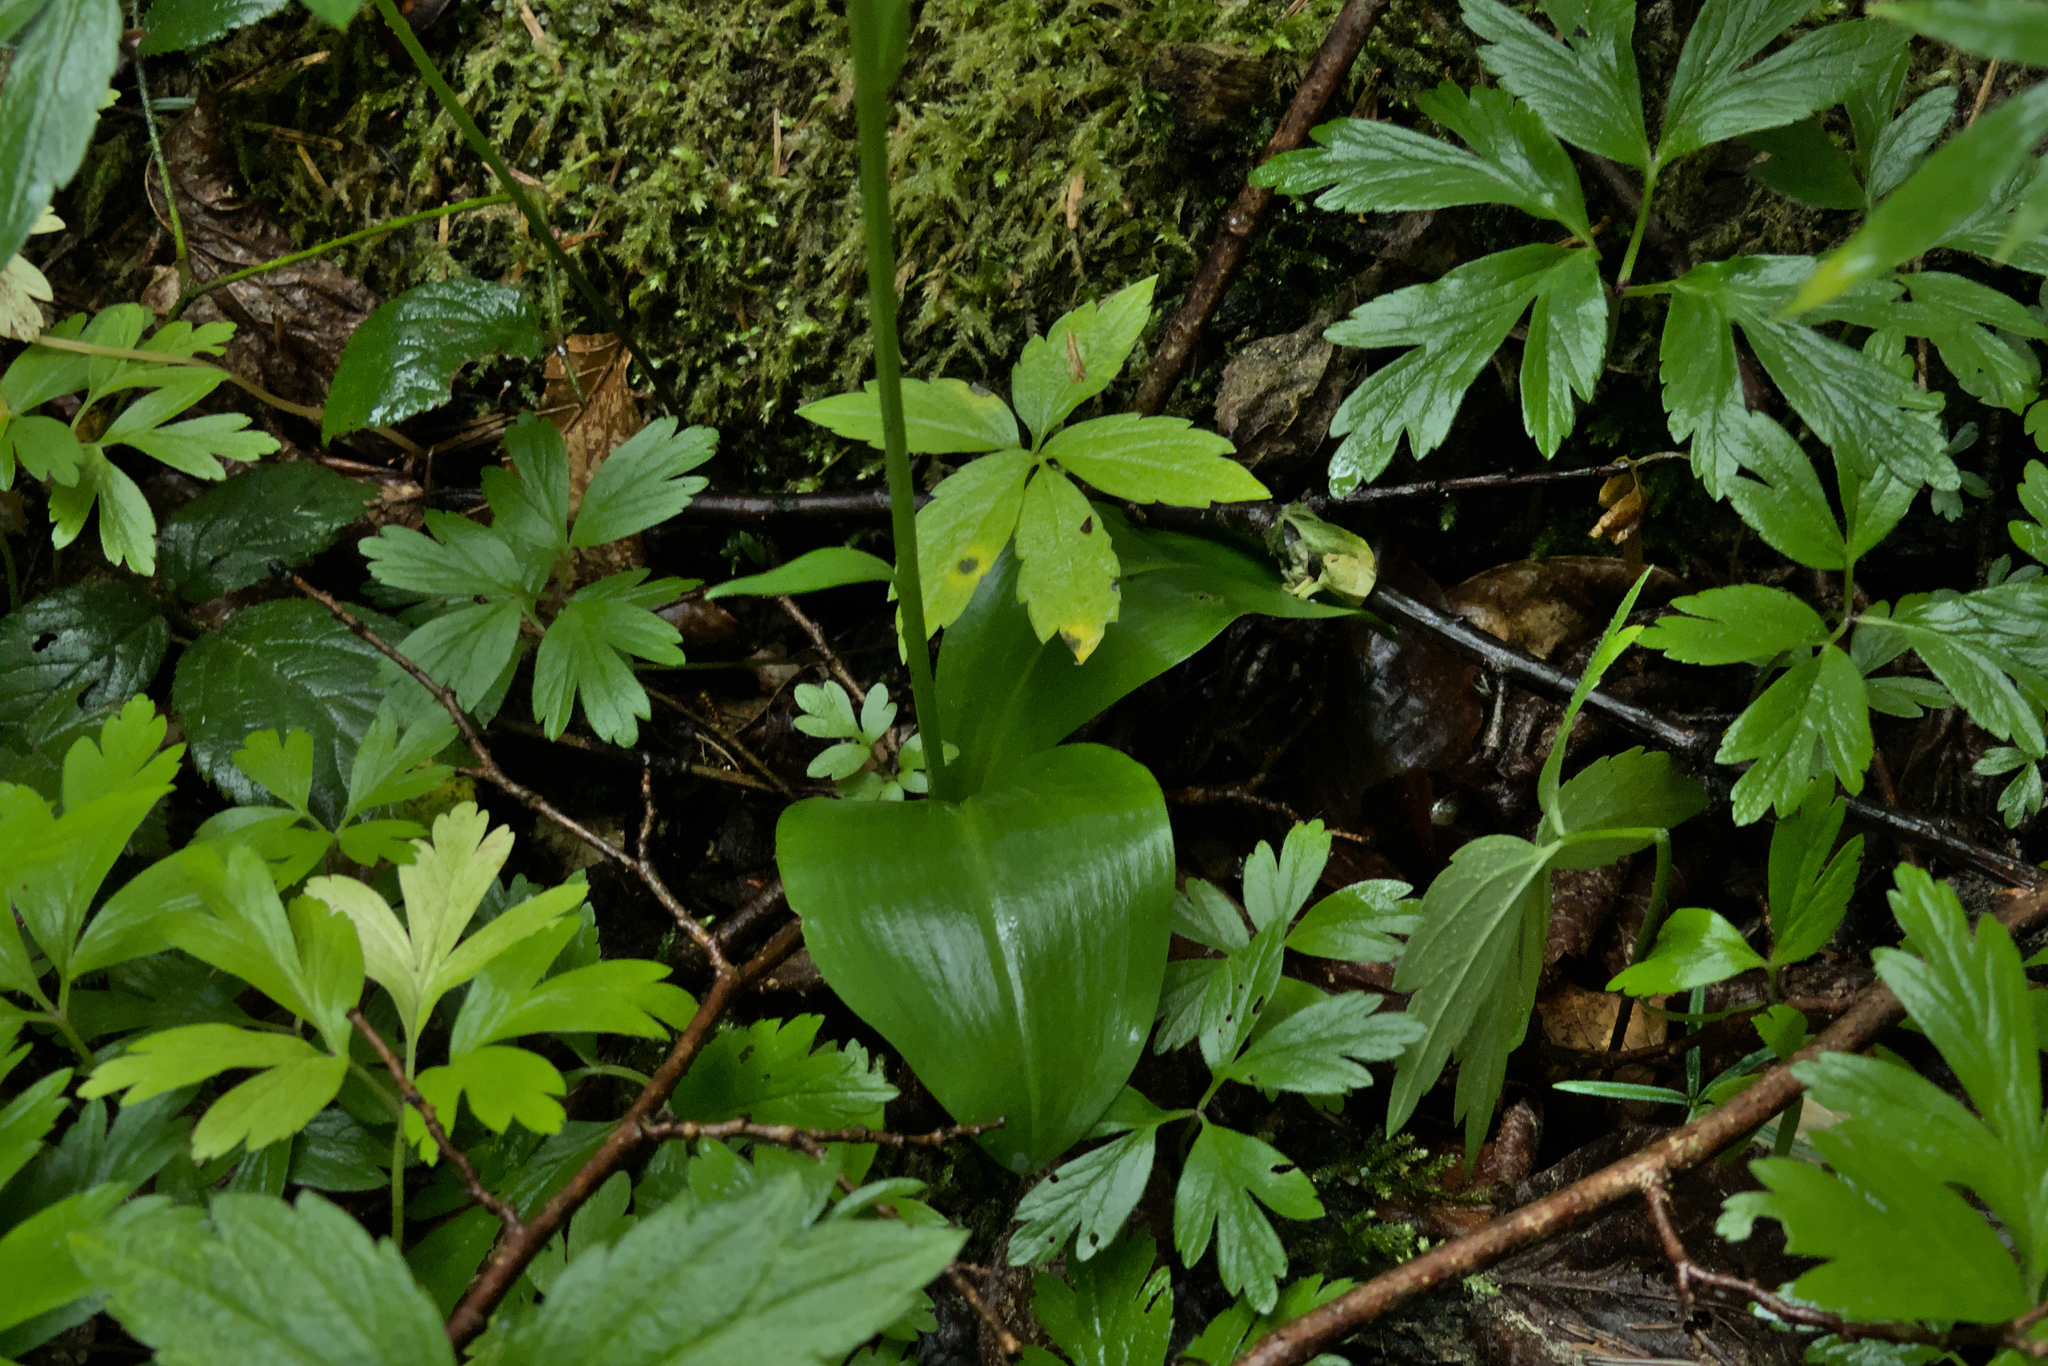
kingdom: Plantae
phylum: Tracheophyta
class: Liliopsida
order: Asparagales
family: Orchidaceae
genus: Platanthera
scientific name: Platanthera bifolia
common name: Lesser butterfly-orchid
